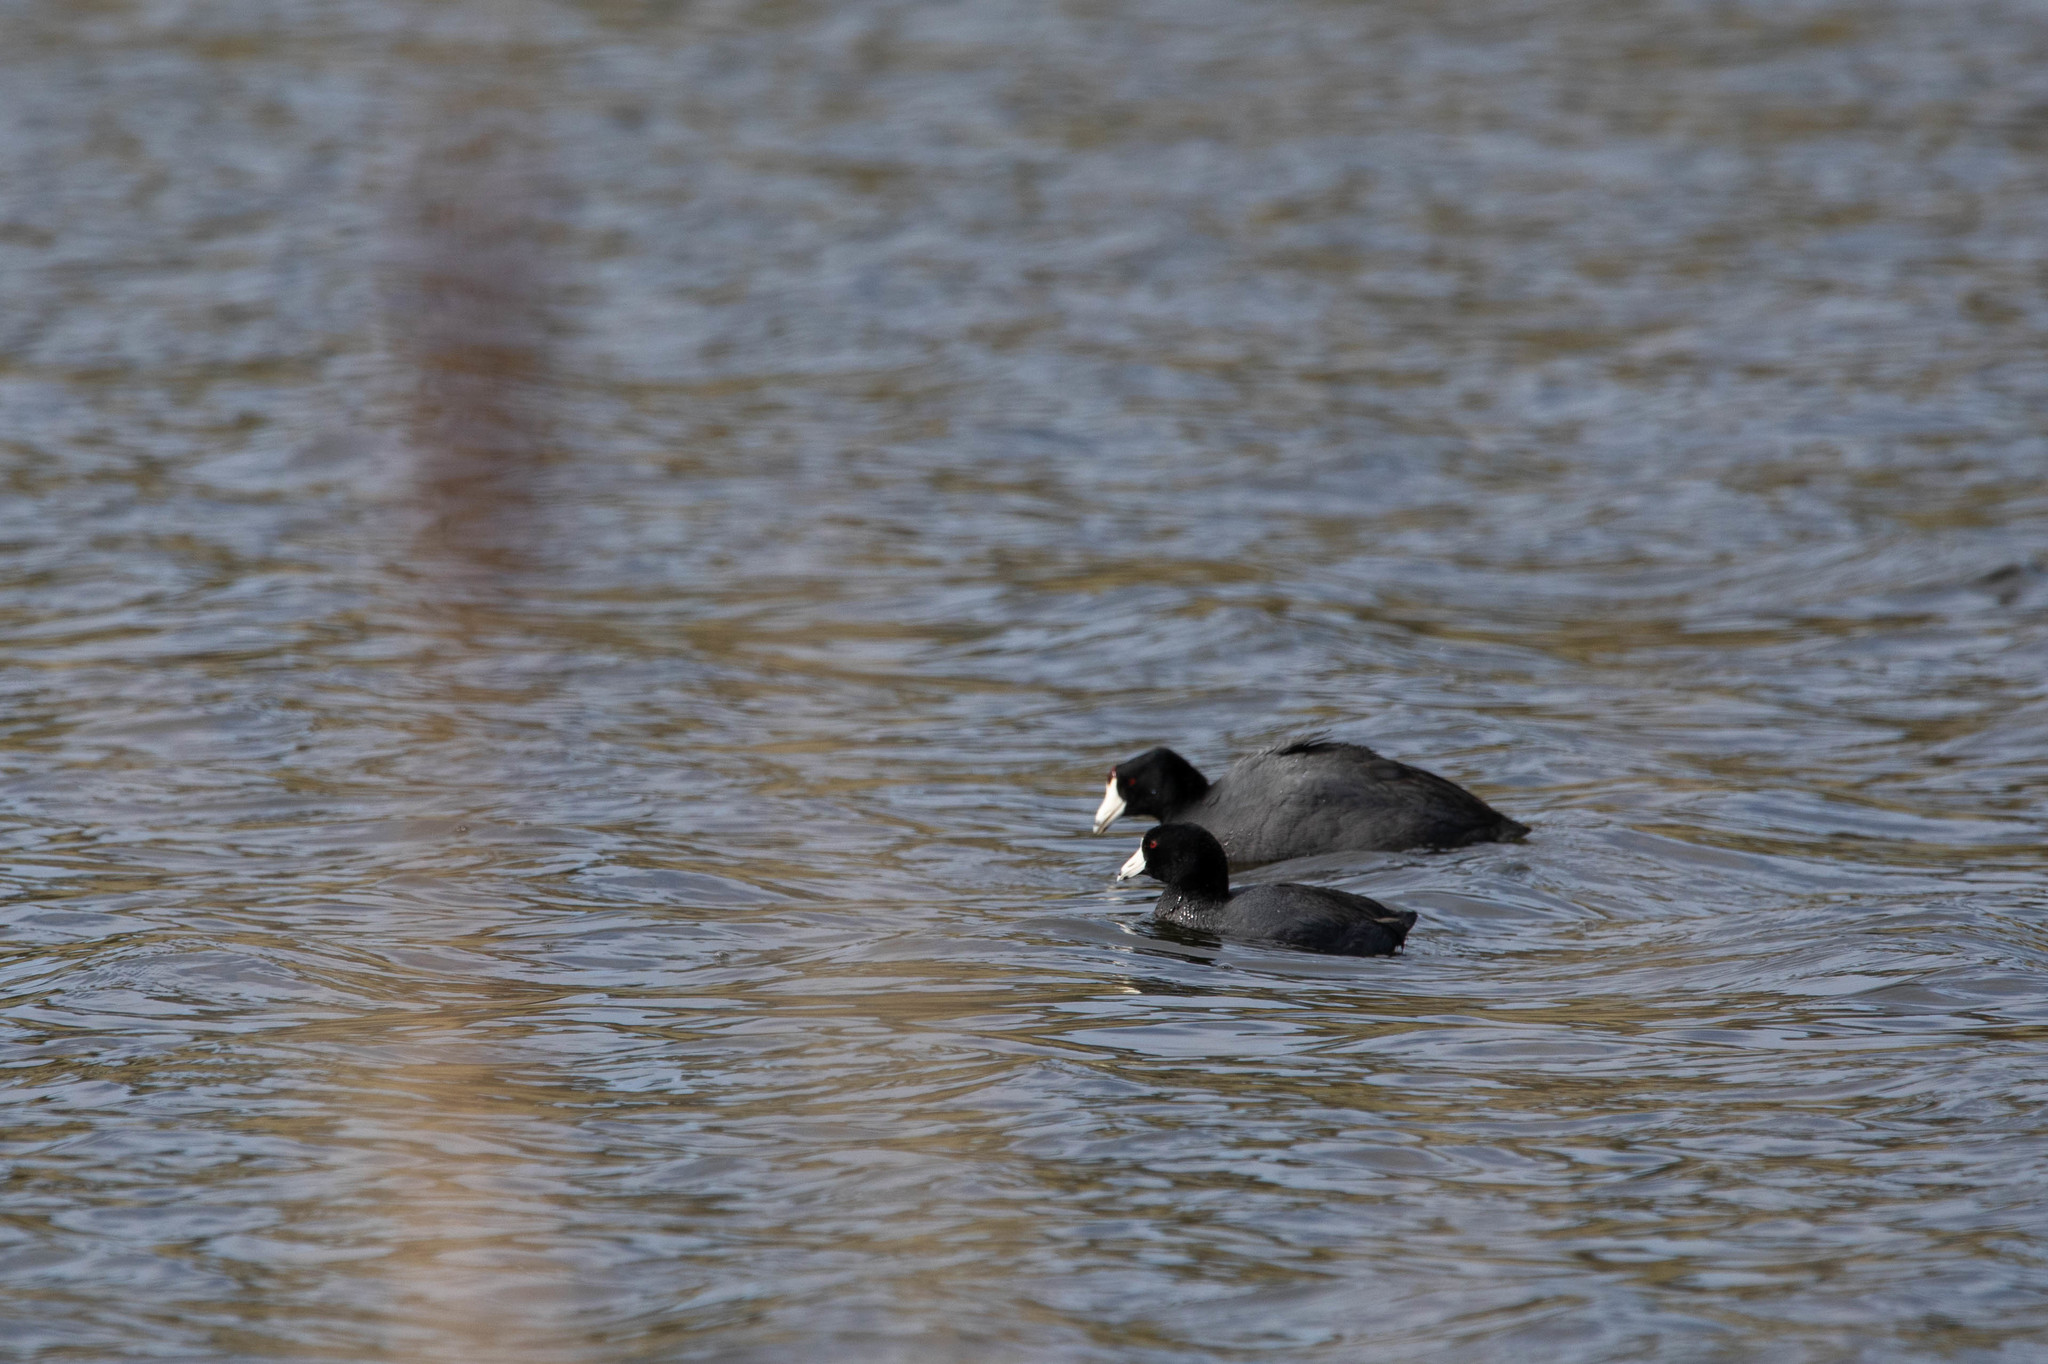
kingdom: Animalia
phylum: Chordata
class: Aves
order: Gruiformes
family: Rallidae
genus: Fulica
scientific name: Fulica americana
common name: American coot
